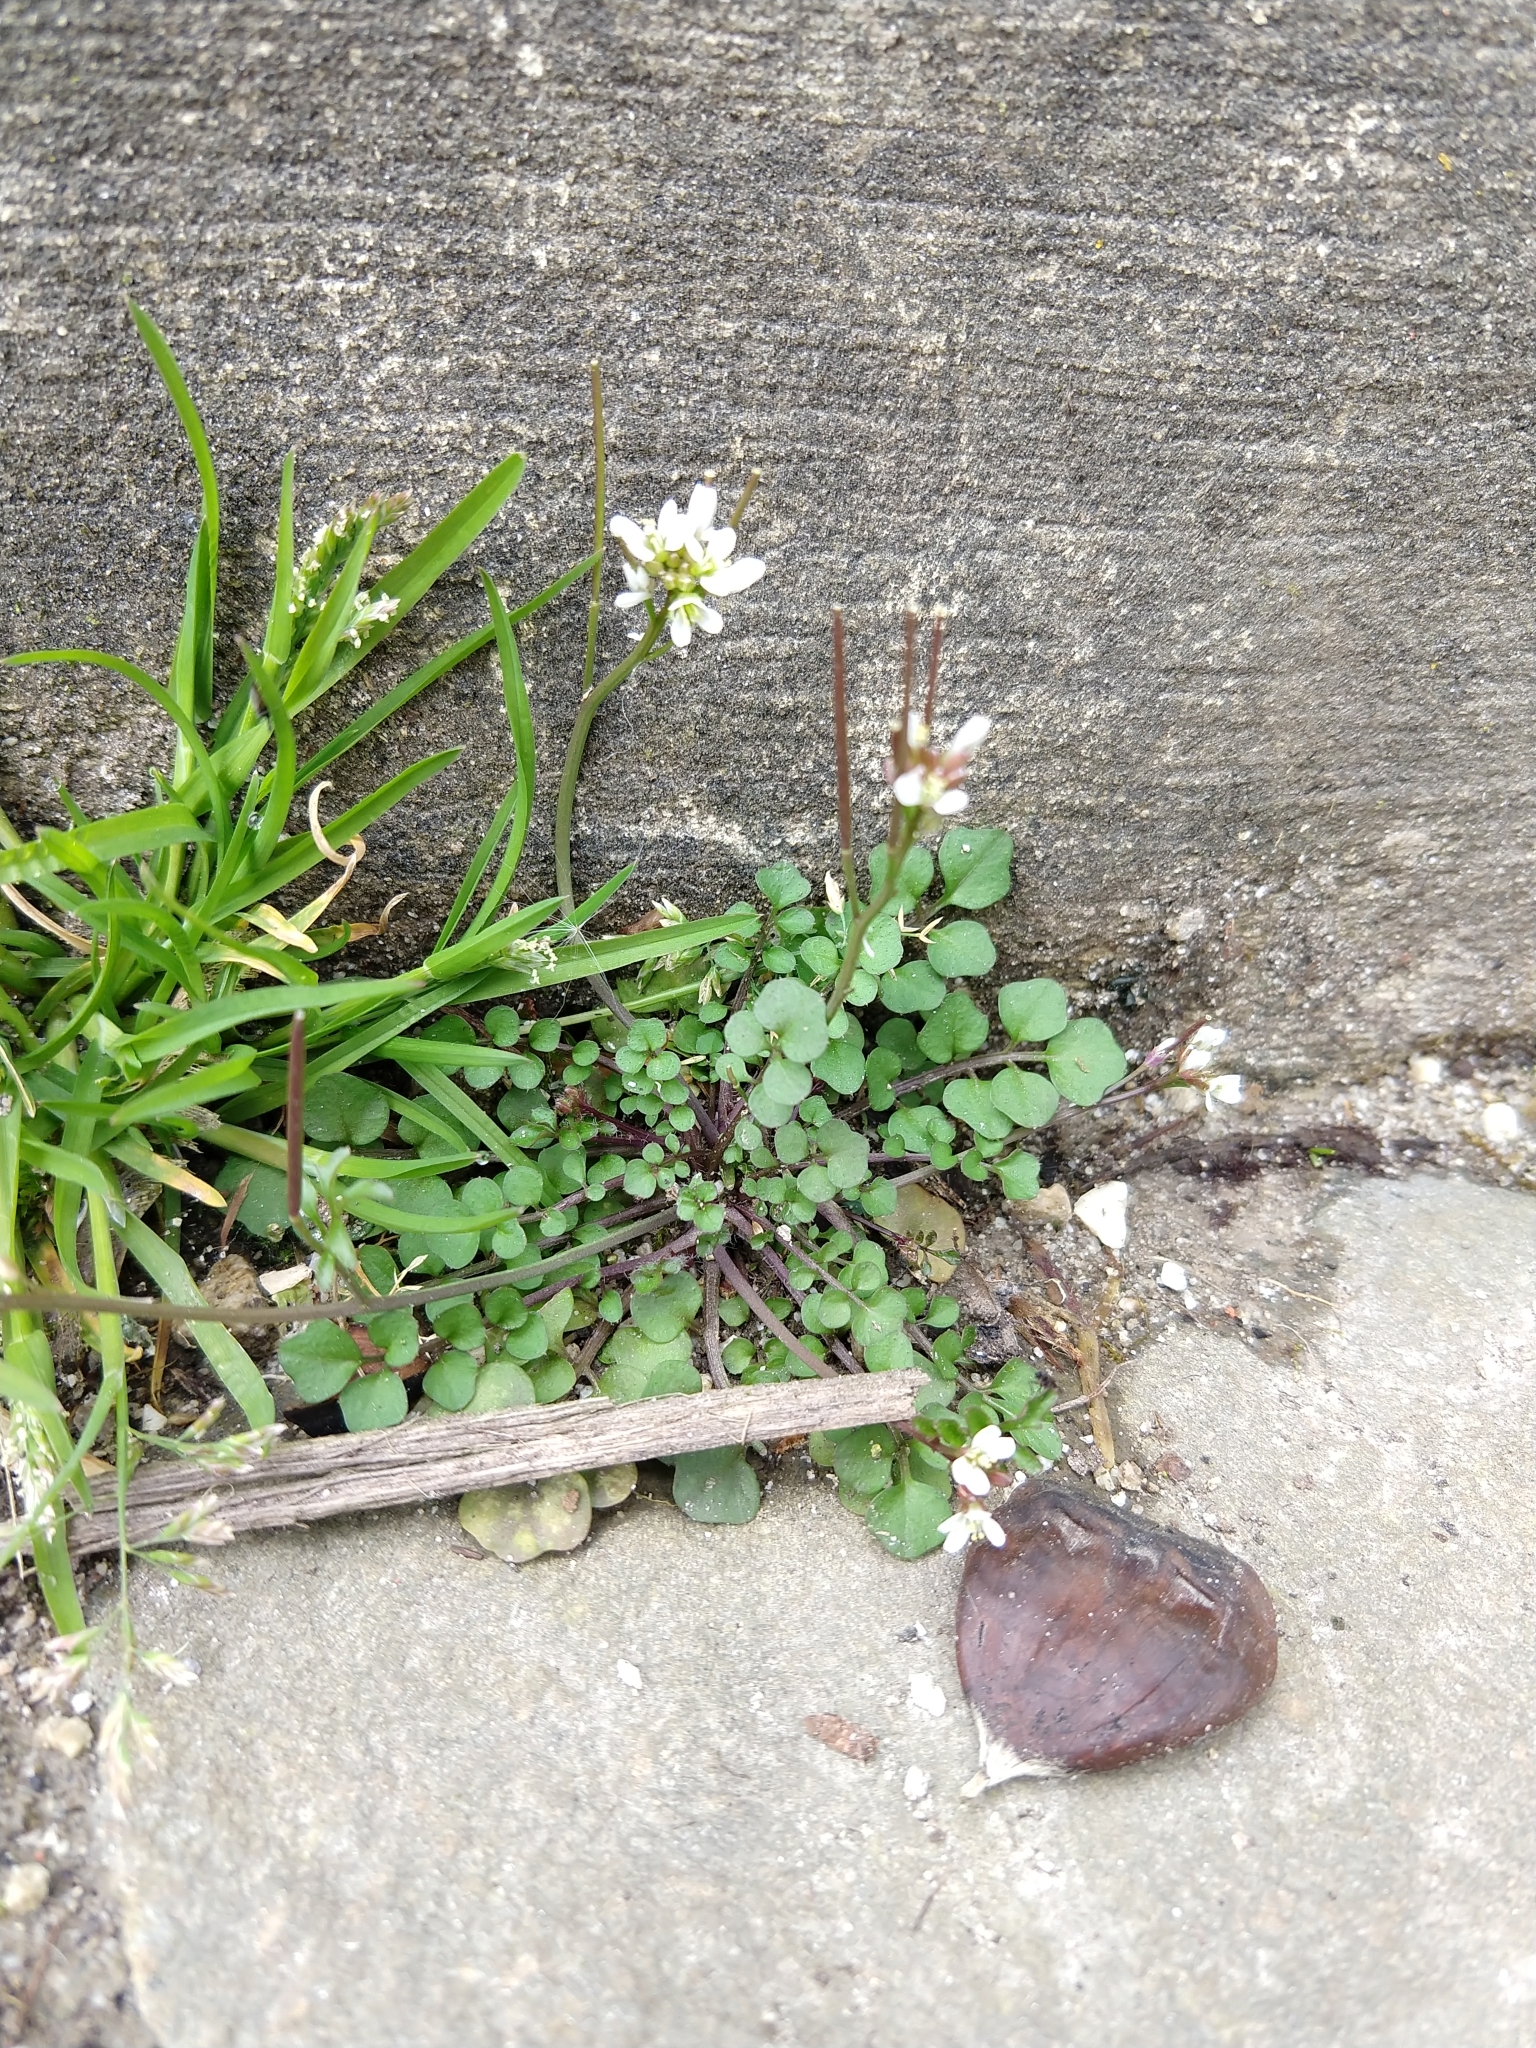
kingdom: Plantae
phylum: Tracheophyta
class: Magnoliopsida
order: Brassicales
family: Brassicaceae
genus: Cardamine
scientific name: Cardamine hirsuta
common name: Hairy bittercress
